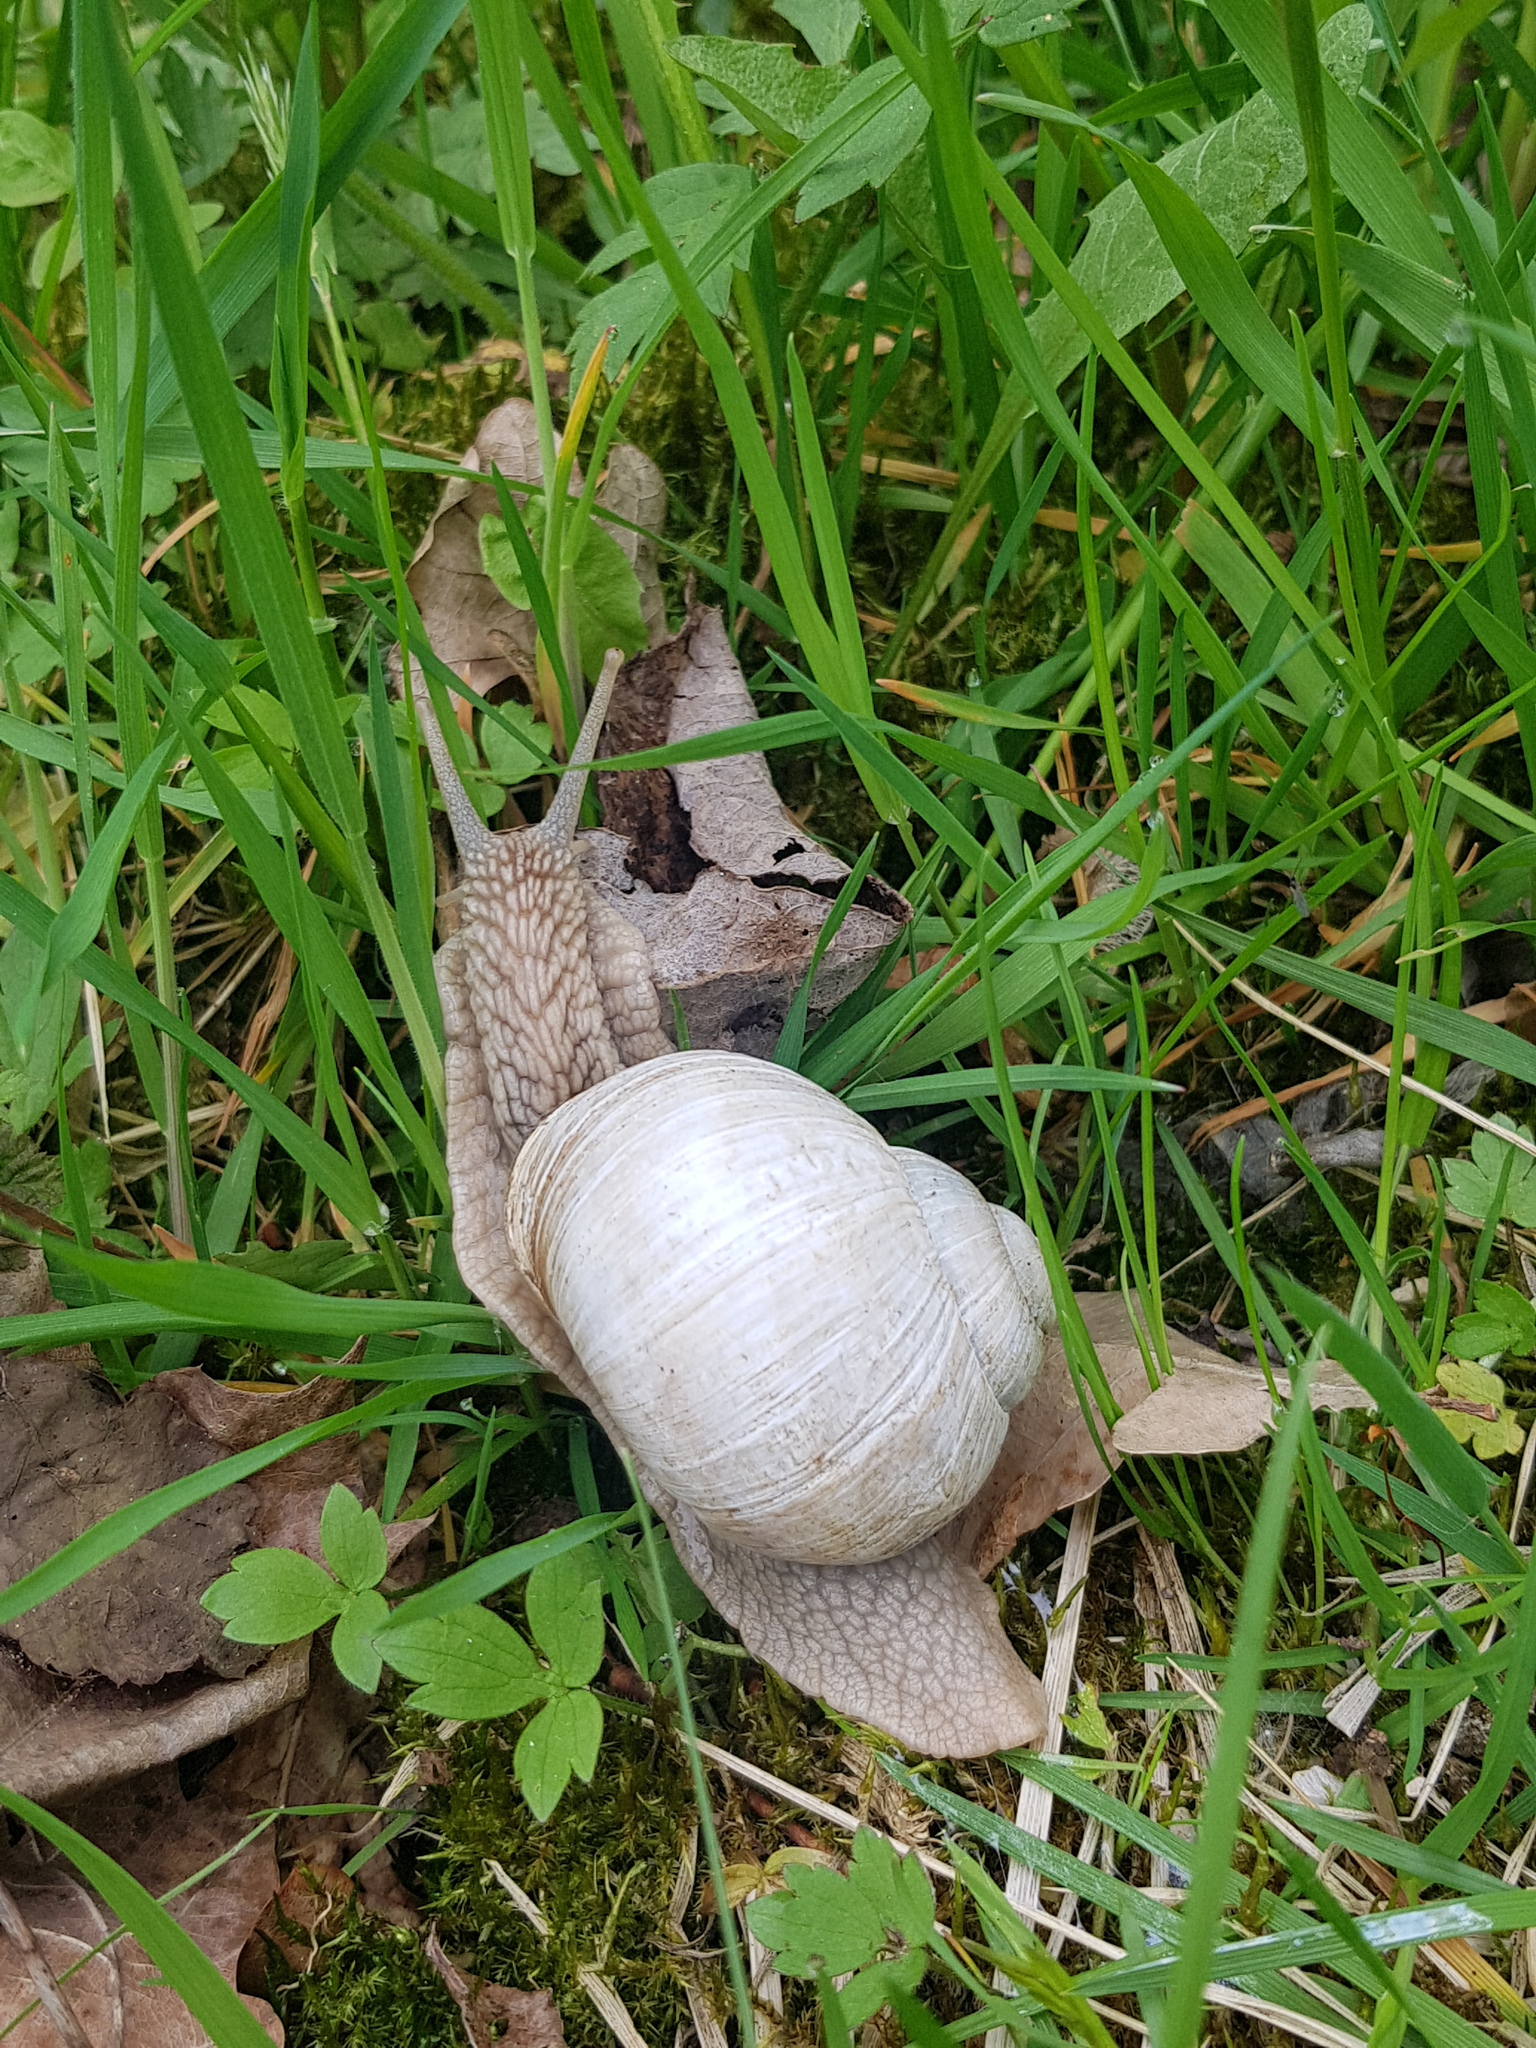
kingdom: Animalia
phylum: Mollusca
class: Gastropoda
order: Stylommatophora
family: Helicidae
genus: Helix
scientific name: Helix pomatia
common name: Roman snail
